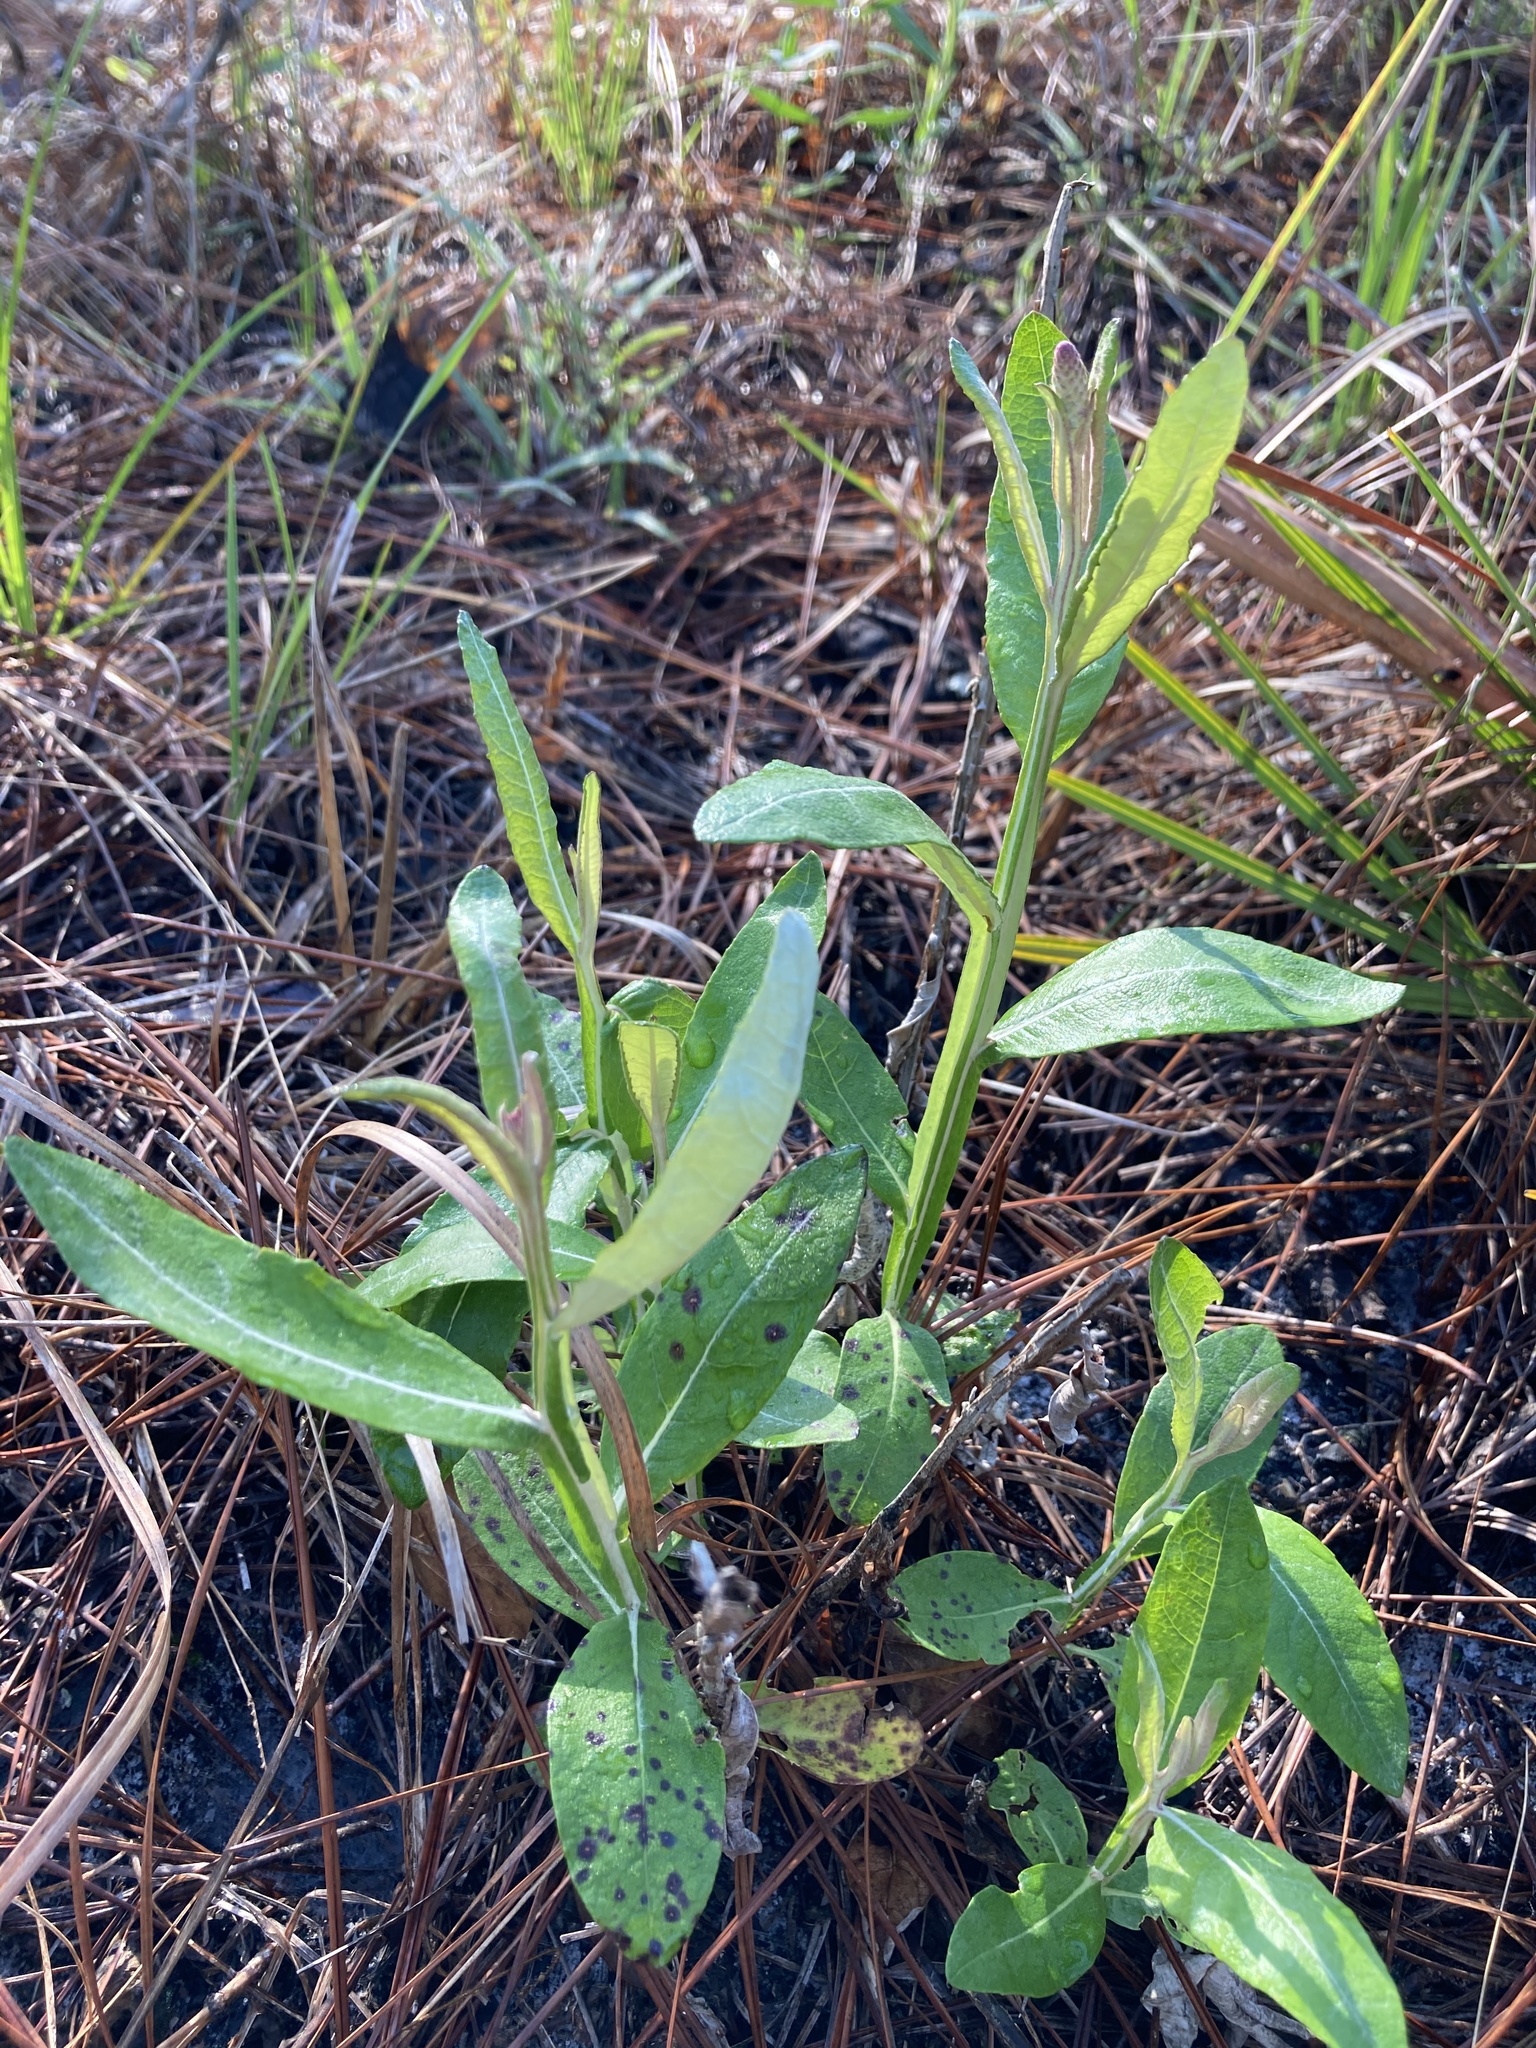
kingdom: Plantae
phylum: Tracheophyta
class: Magnoliopsida
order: Asterales
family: Asteraceae
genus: Pterocaulon
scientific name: Pterocaulon pycnostachyum
